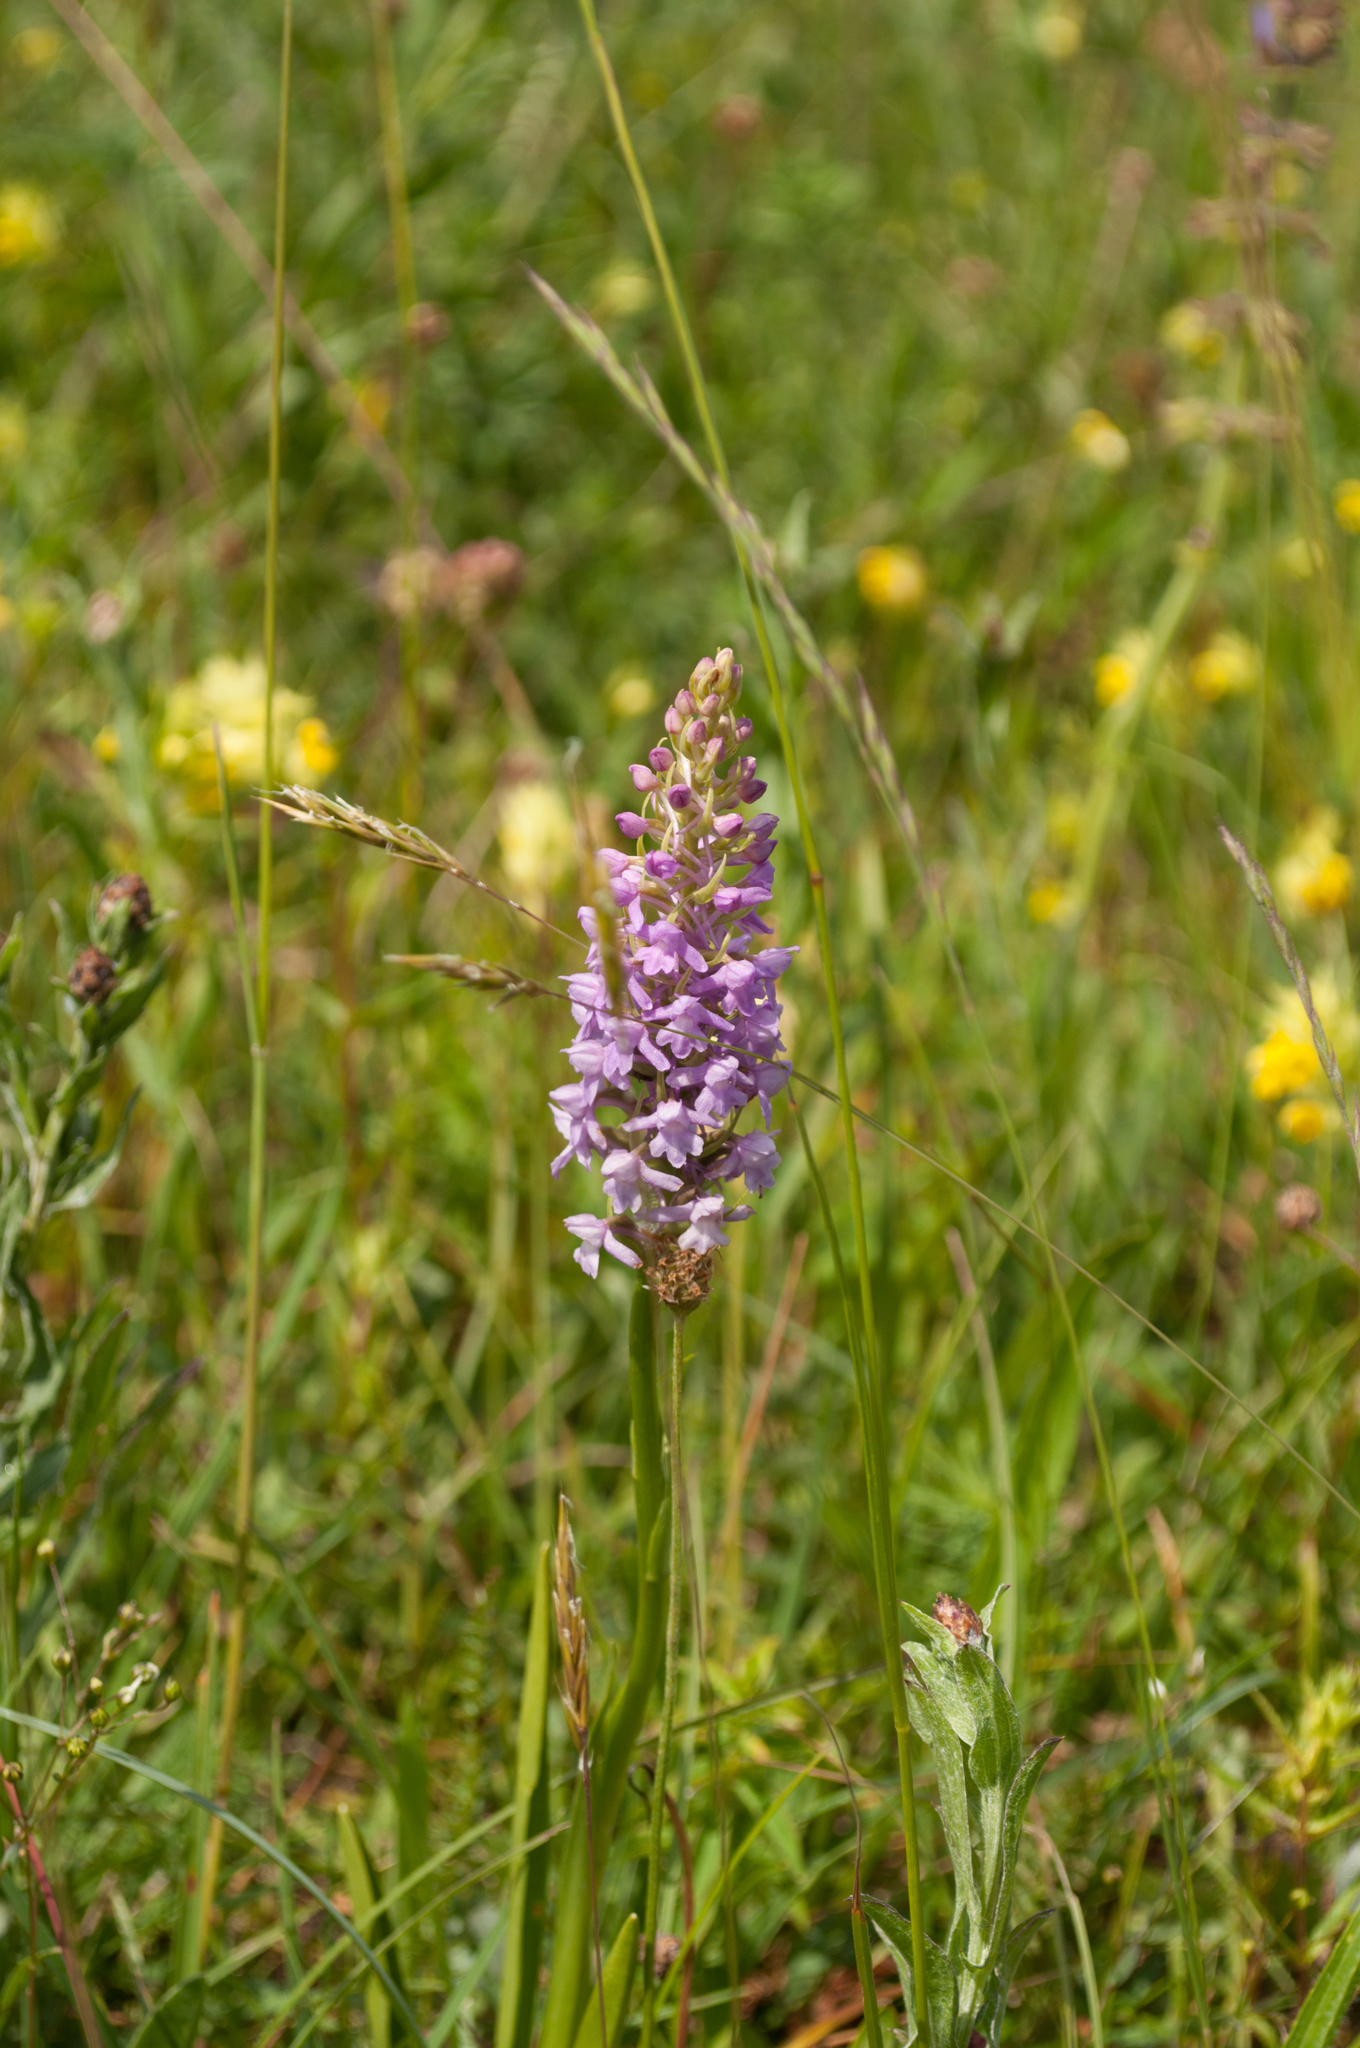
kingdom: Plantae
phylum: Tracheophyta
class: Liliopsida
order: Asparagales
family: Orchidaceae
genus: Gymnadenia
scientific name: Gymnadenia conopsea
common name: Fragrant orchid
